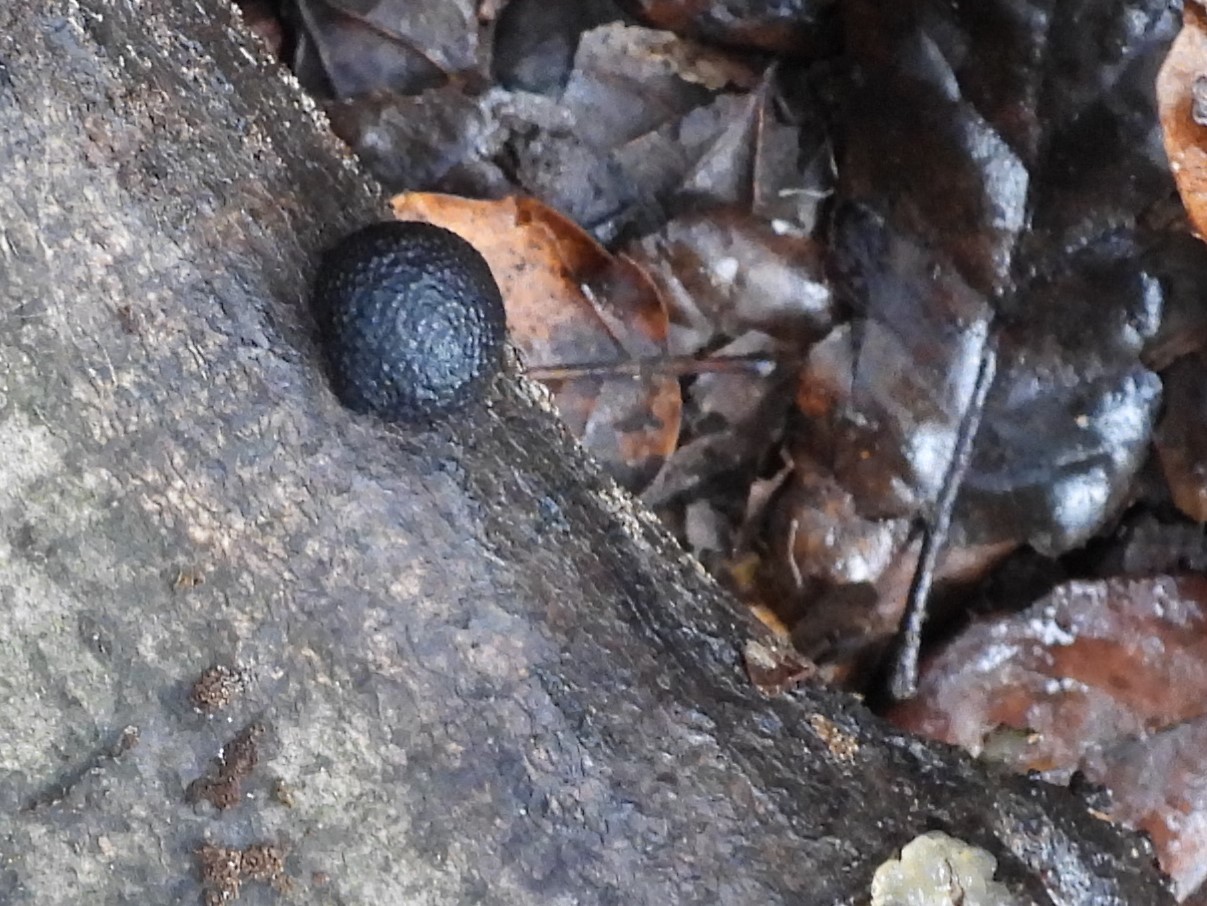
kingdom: Fungi
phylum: Ascomycota
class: Sordariomycetes
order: Xylariales
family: Hypoxylaceae
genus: Annulohypoxylon
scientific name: Annulohypoxylon thouarsianum
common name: Cramp balls
